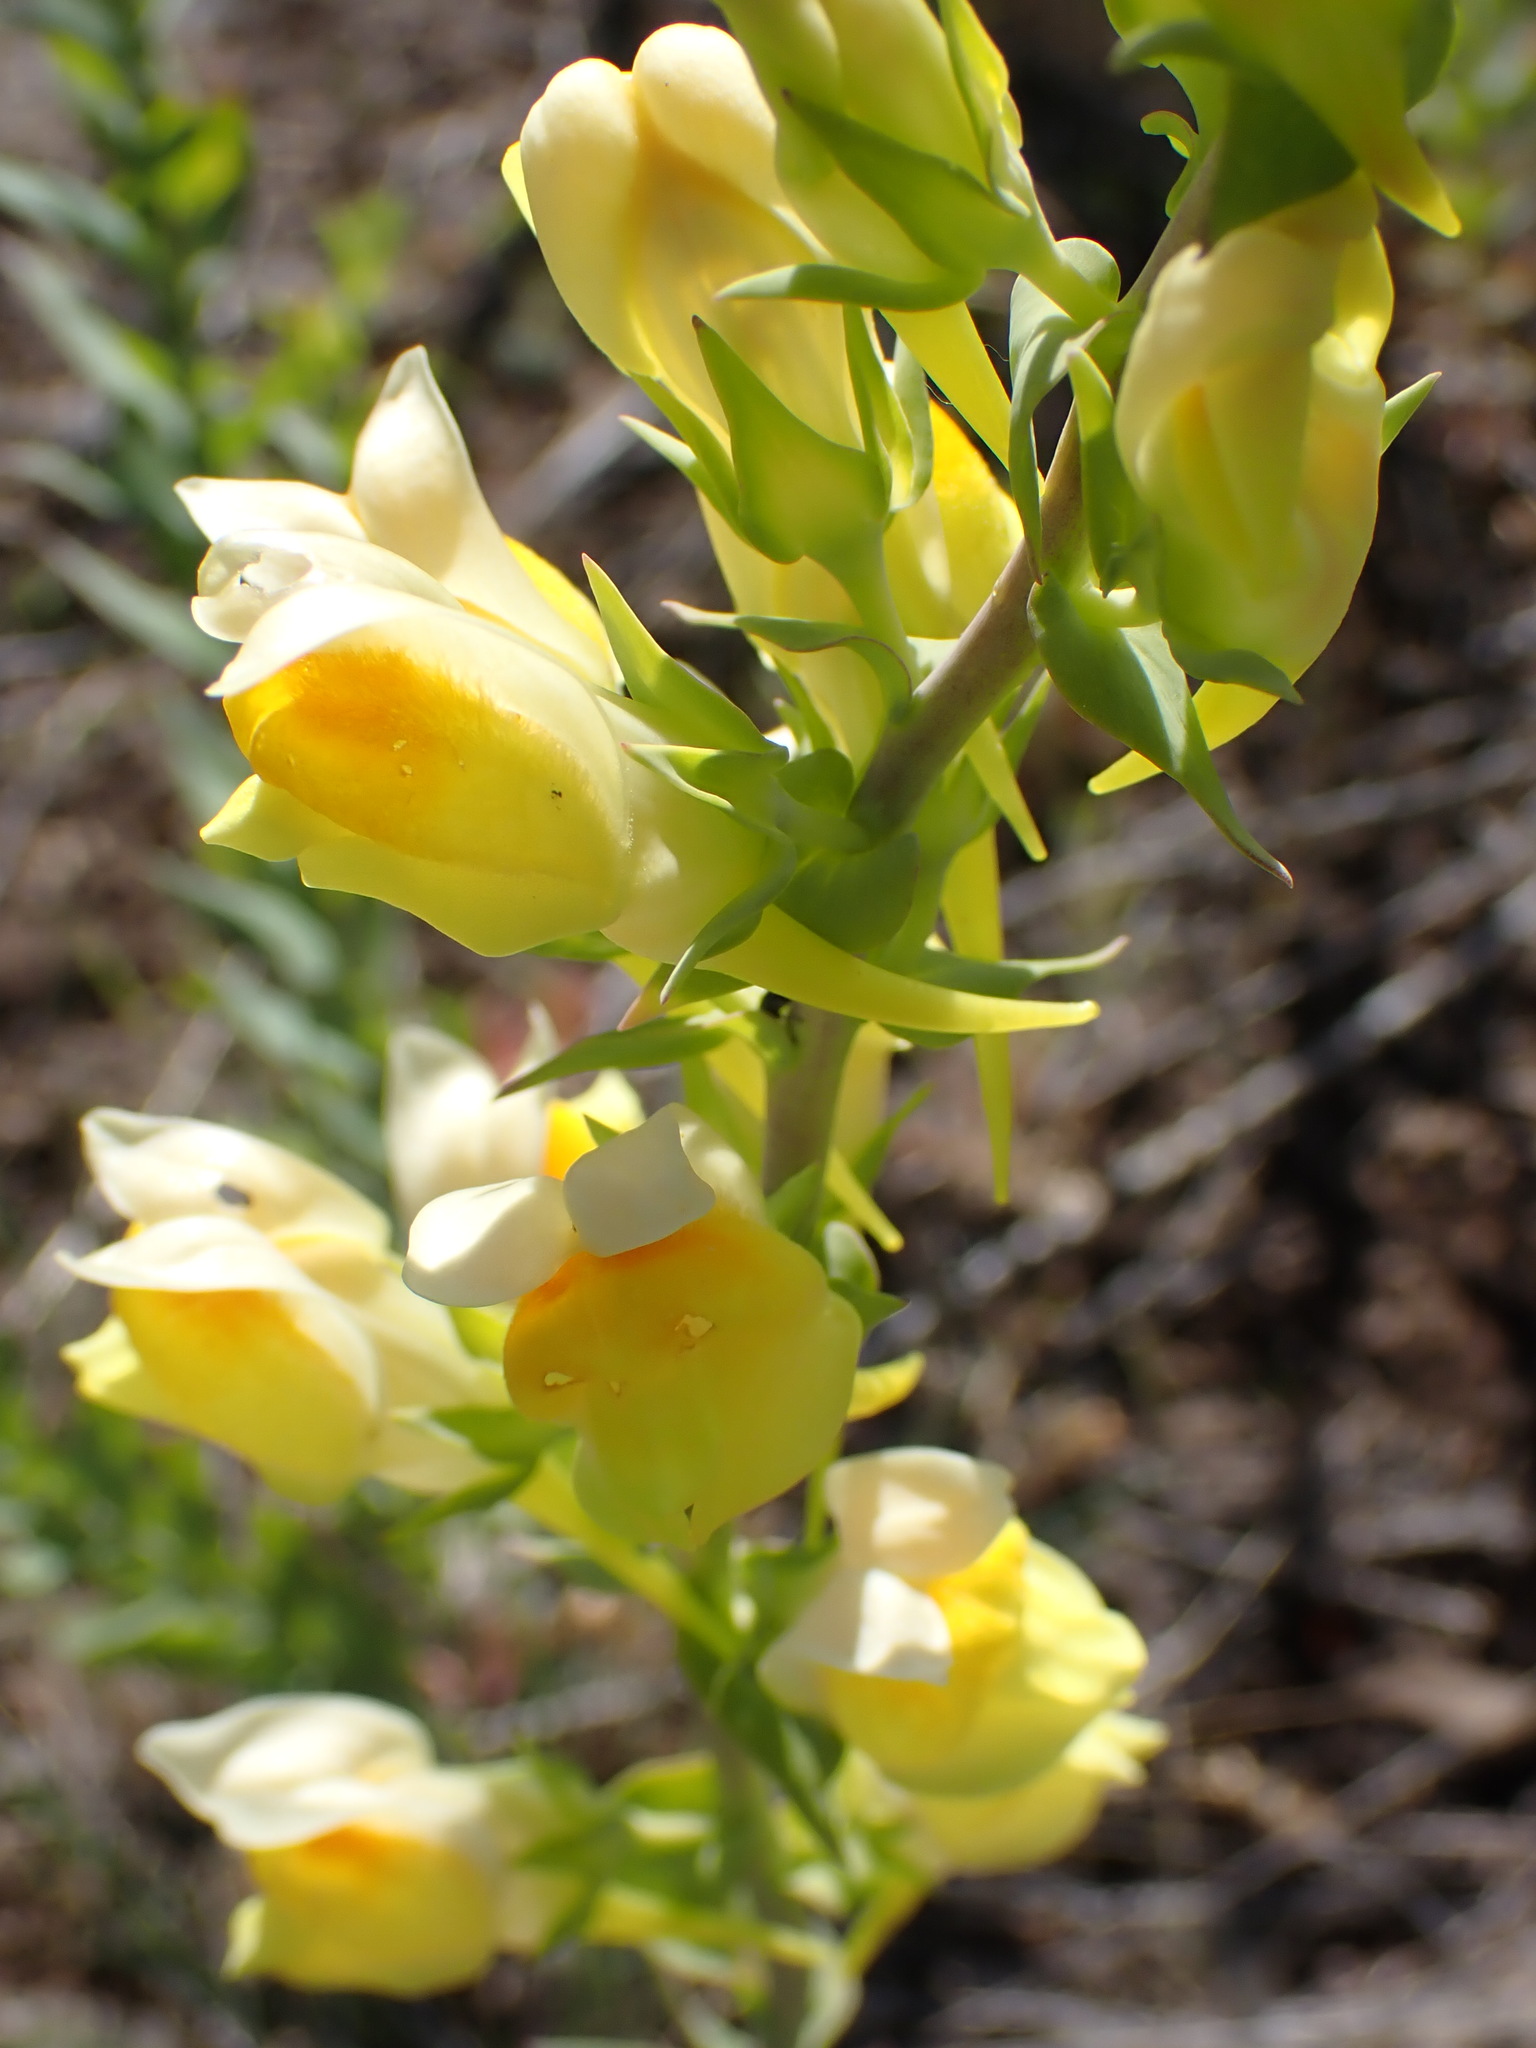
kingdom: Plantae
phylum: Tracheophyta
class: Magnoliopsida
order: Lamiales
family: Plantaginaceae
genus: Linaria
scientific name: Linaria dalmatica
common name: Dalmatian toadflax
